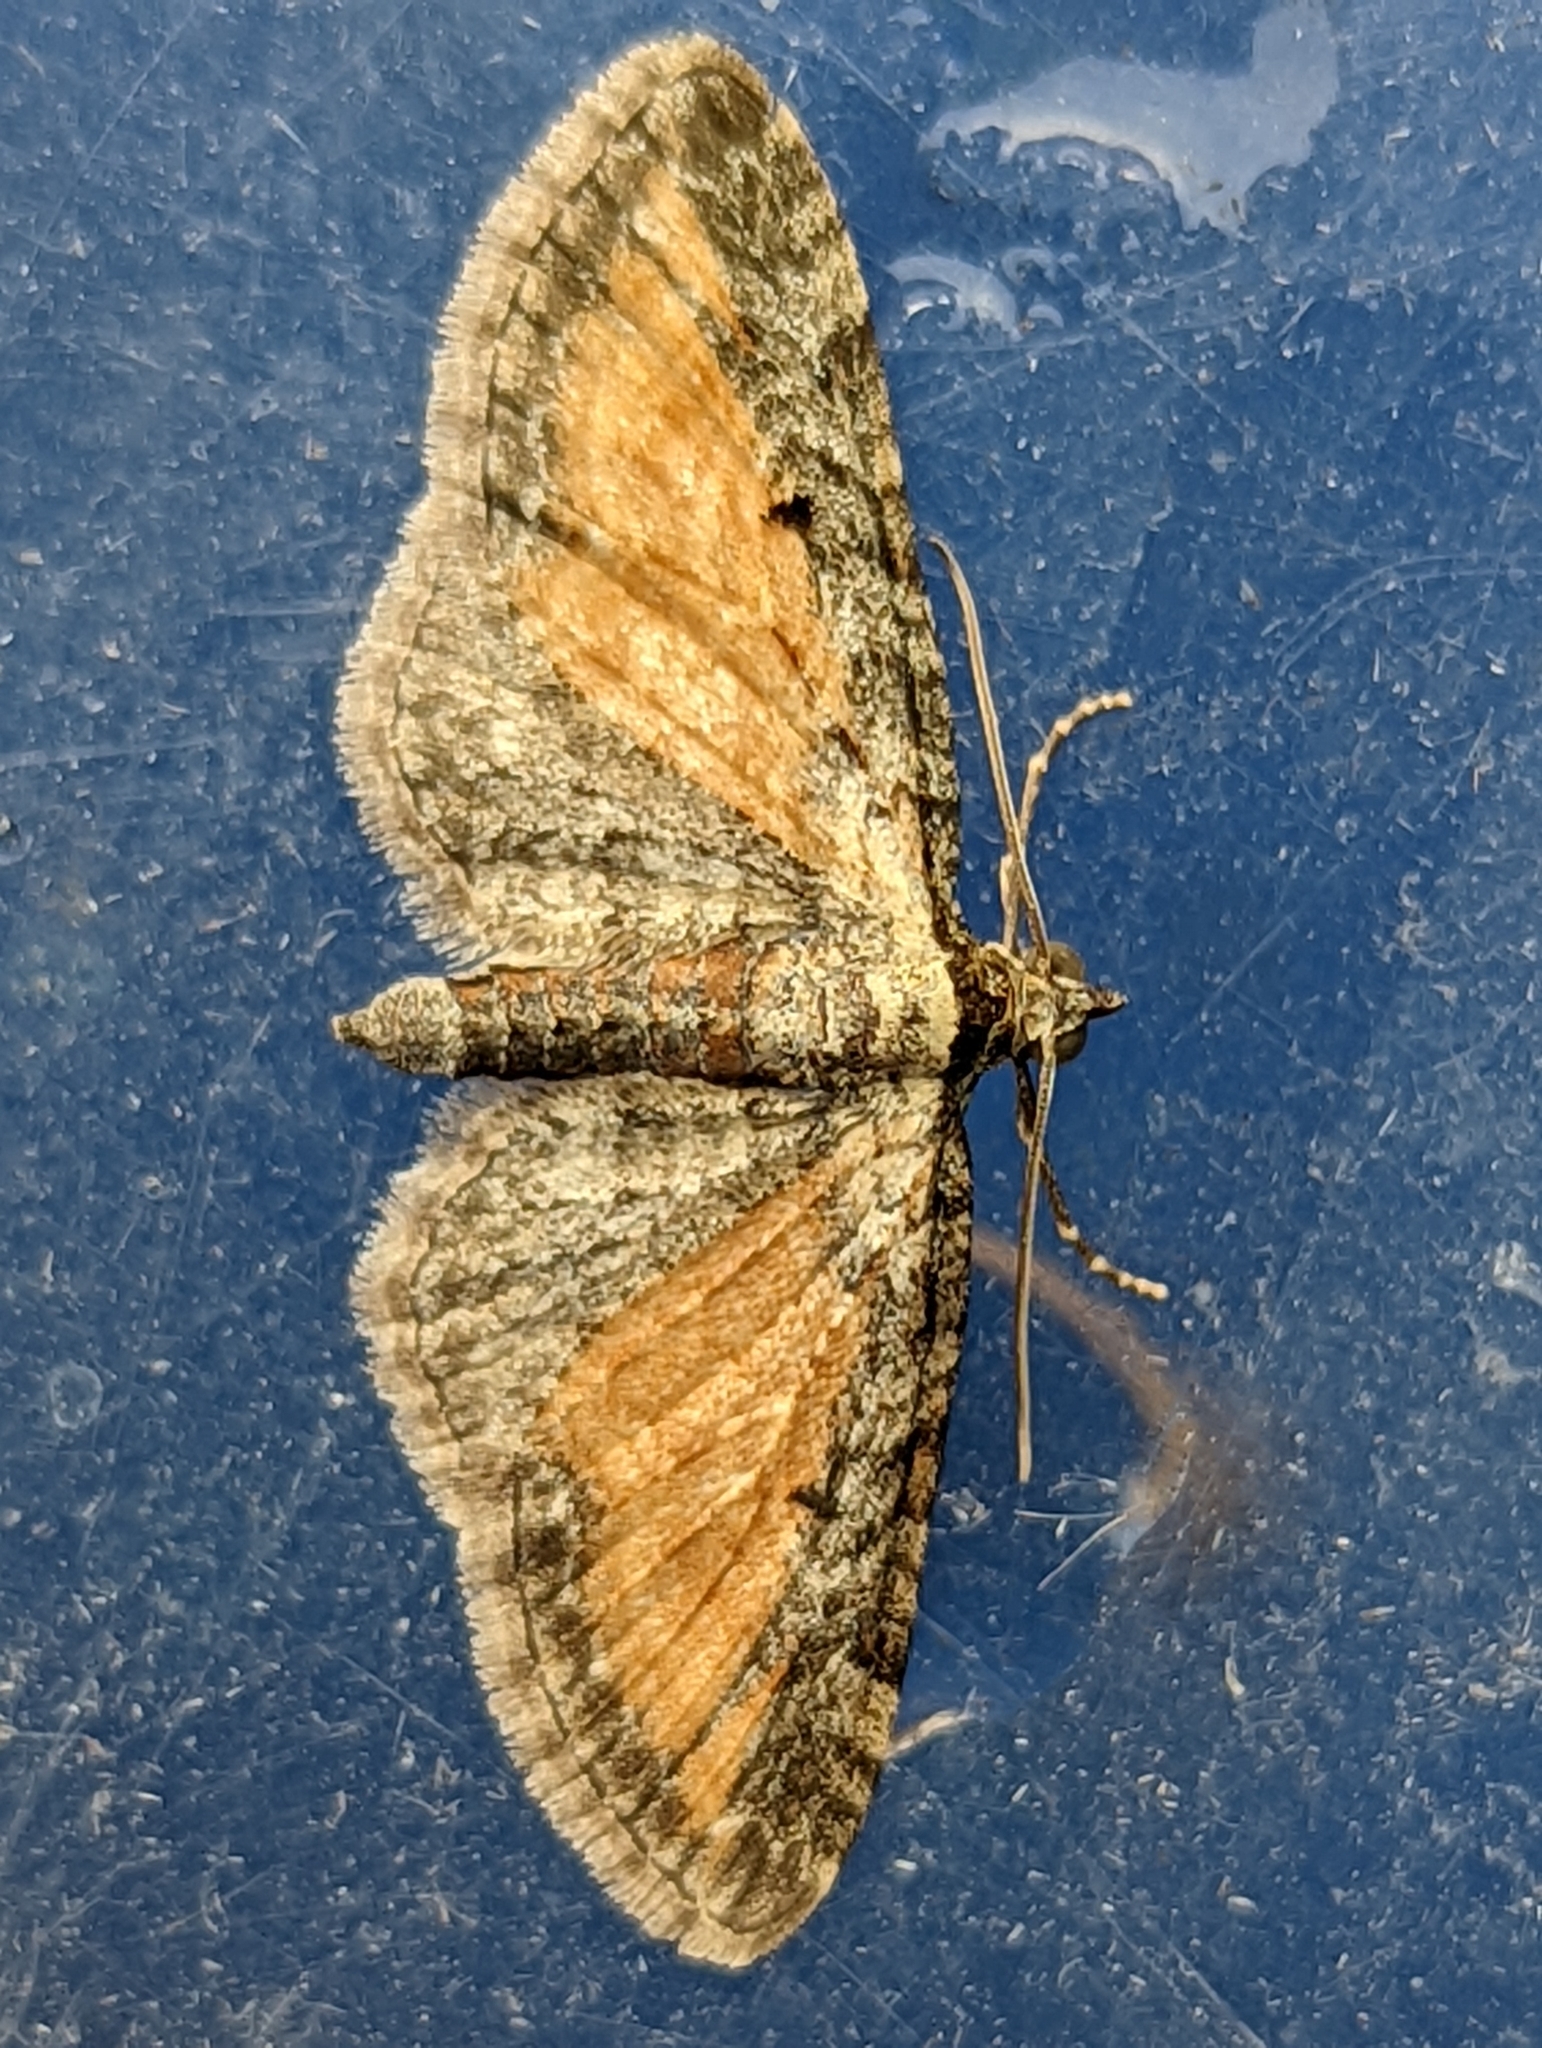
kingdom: Animalia
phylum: Arthropoda
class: Insecta
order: Lepidoptera
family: Geometridae
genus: Eupithecia
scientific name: Eupithecia icterata
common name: Tawny speckled pug
